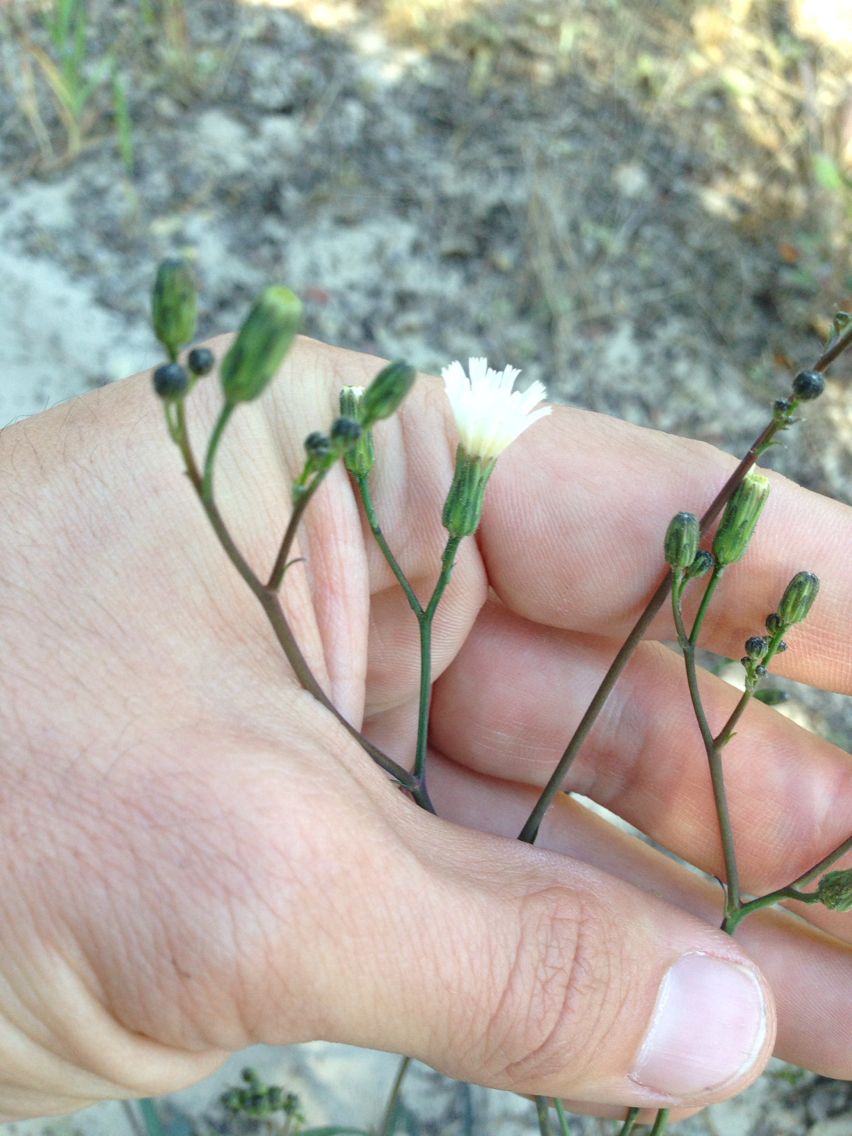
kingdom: Plantae
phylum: Tracheophyta
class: Magnoliopsida
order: Asterales
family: Asteraceae
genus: Hieracium
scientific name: Hieracium albiflorum
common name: White hawkweed
